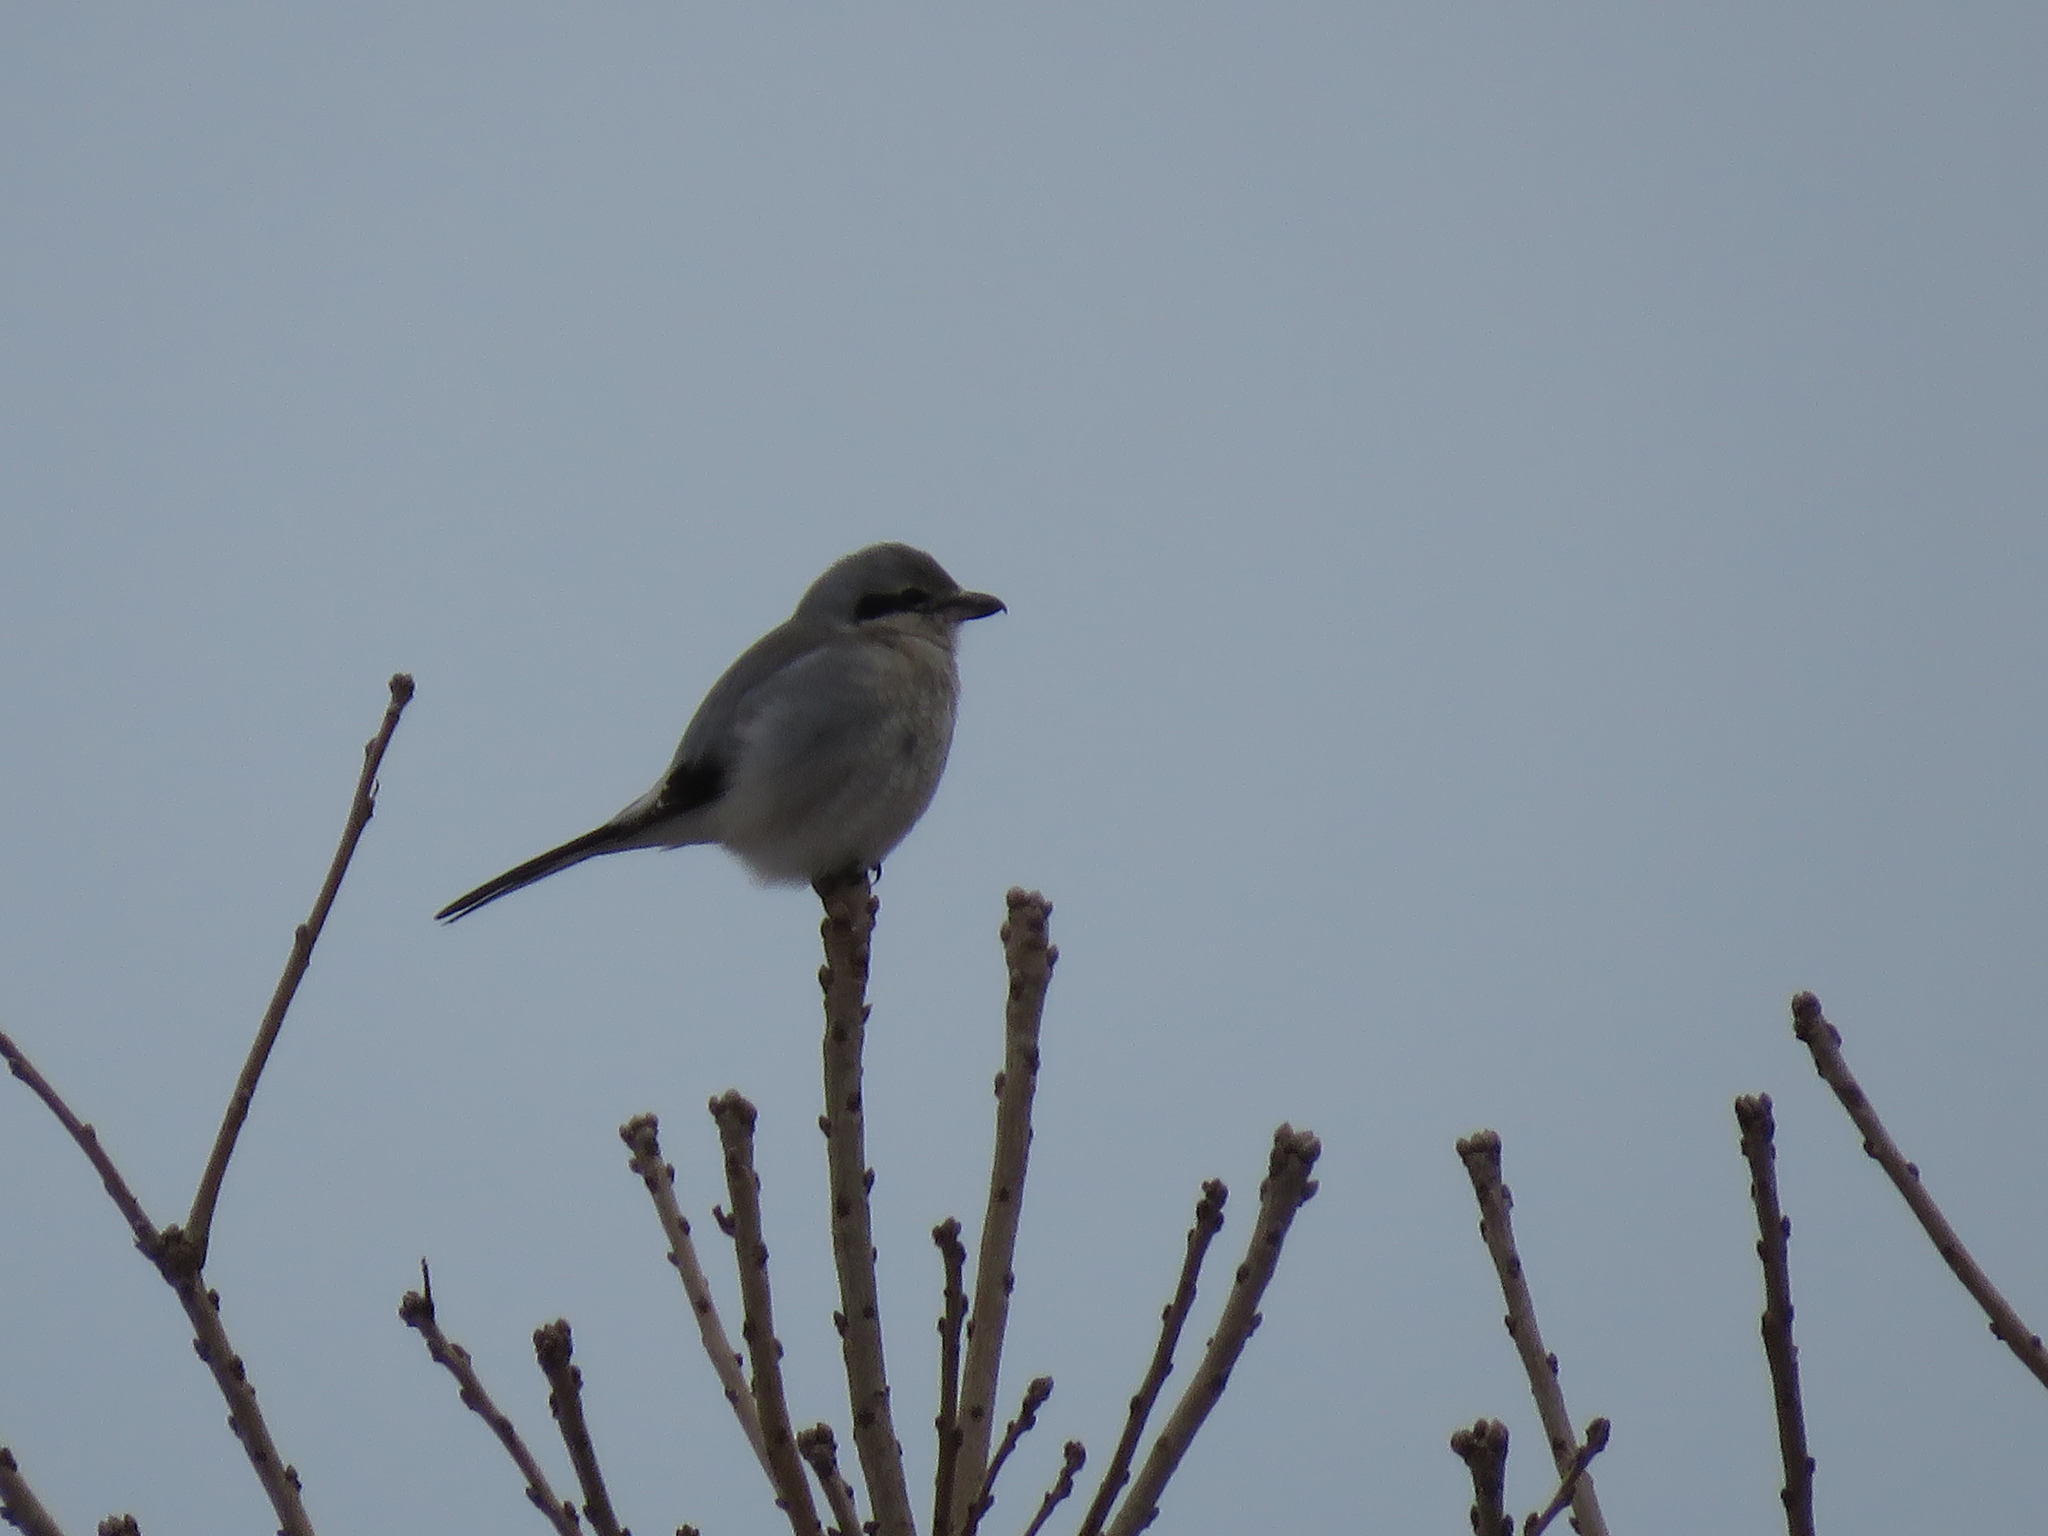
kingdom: Animalia
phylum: Chordata
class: Aves
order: Passeriformes
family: Laniidae
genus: Lanius
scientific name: Lanius borealis
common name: Northern shrike
